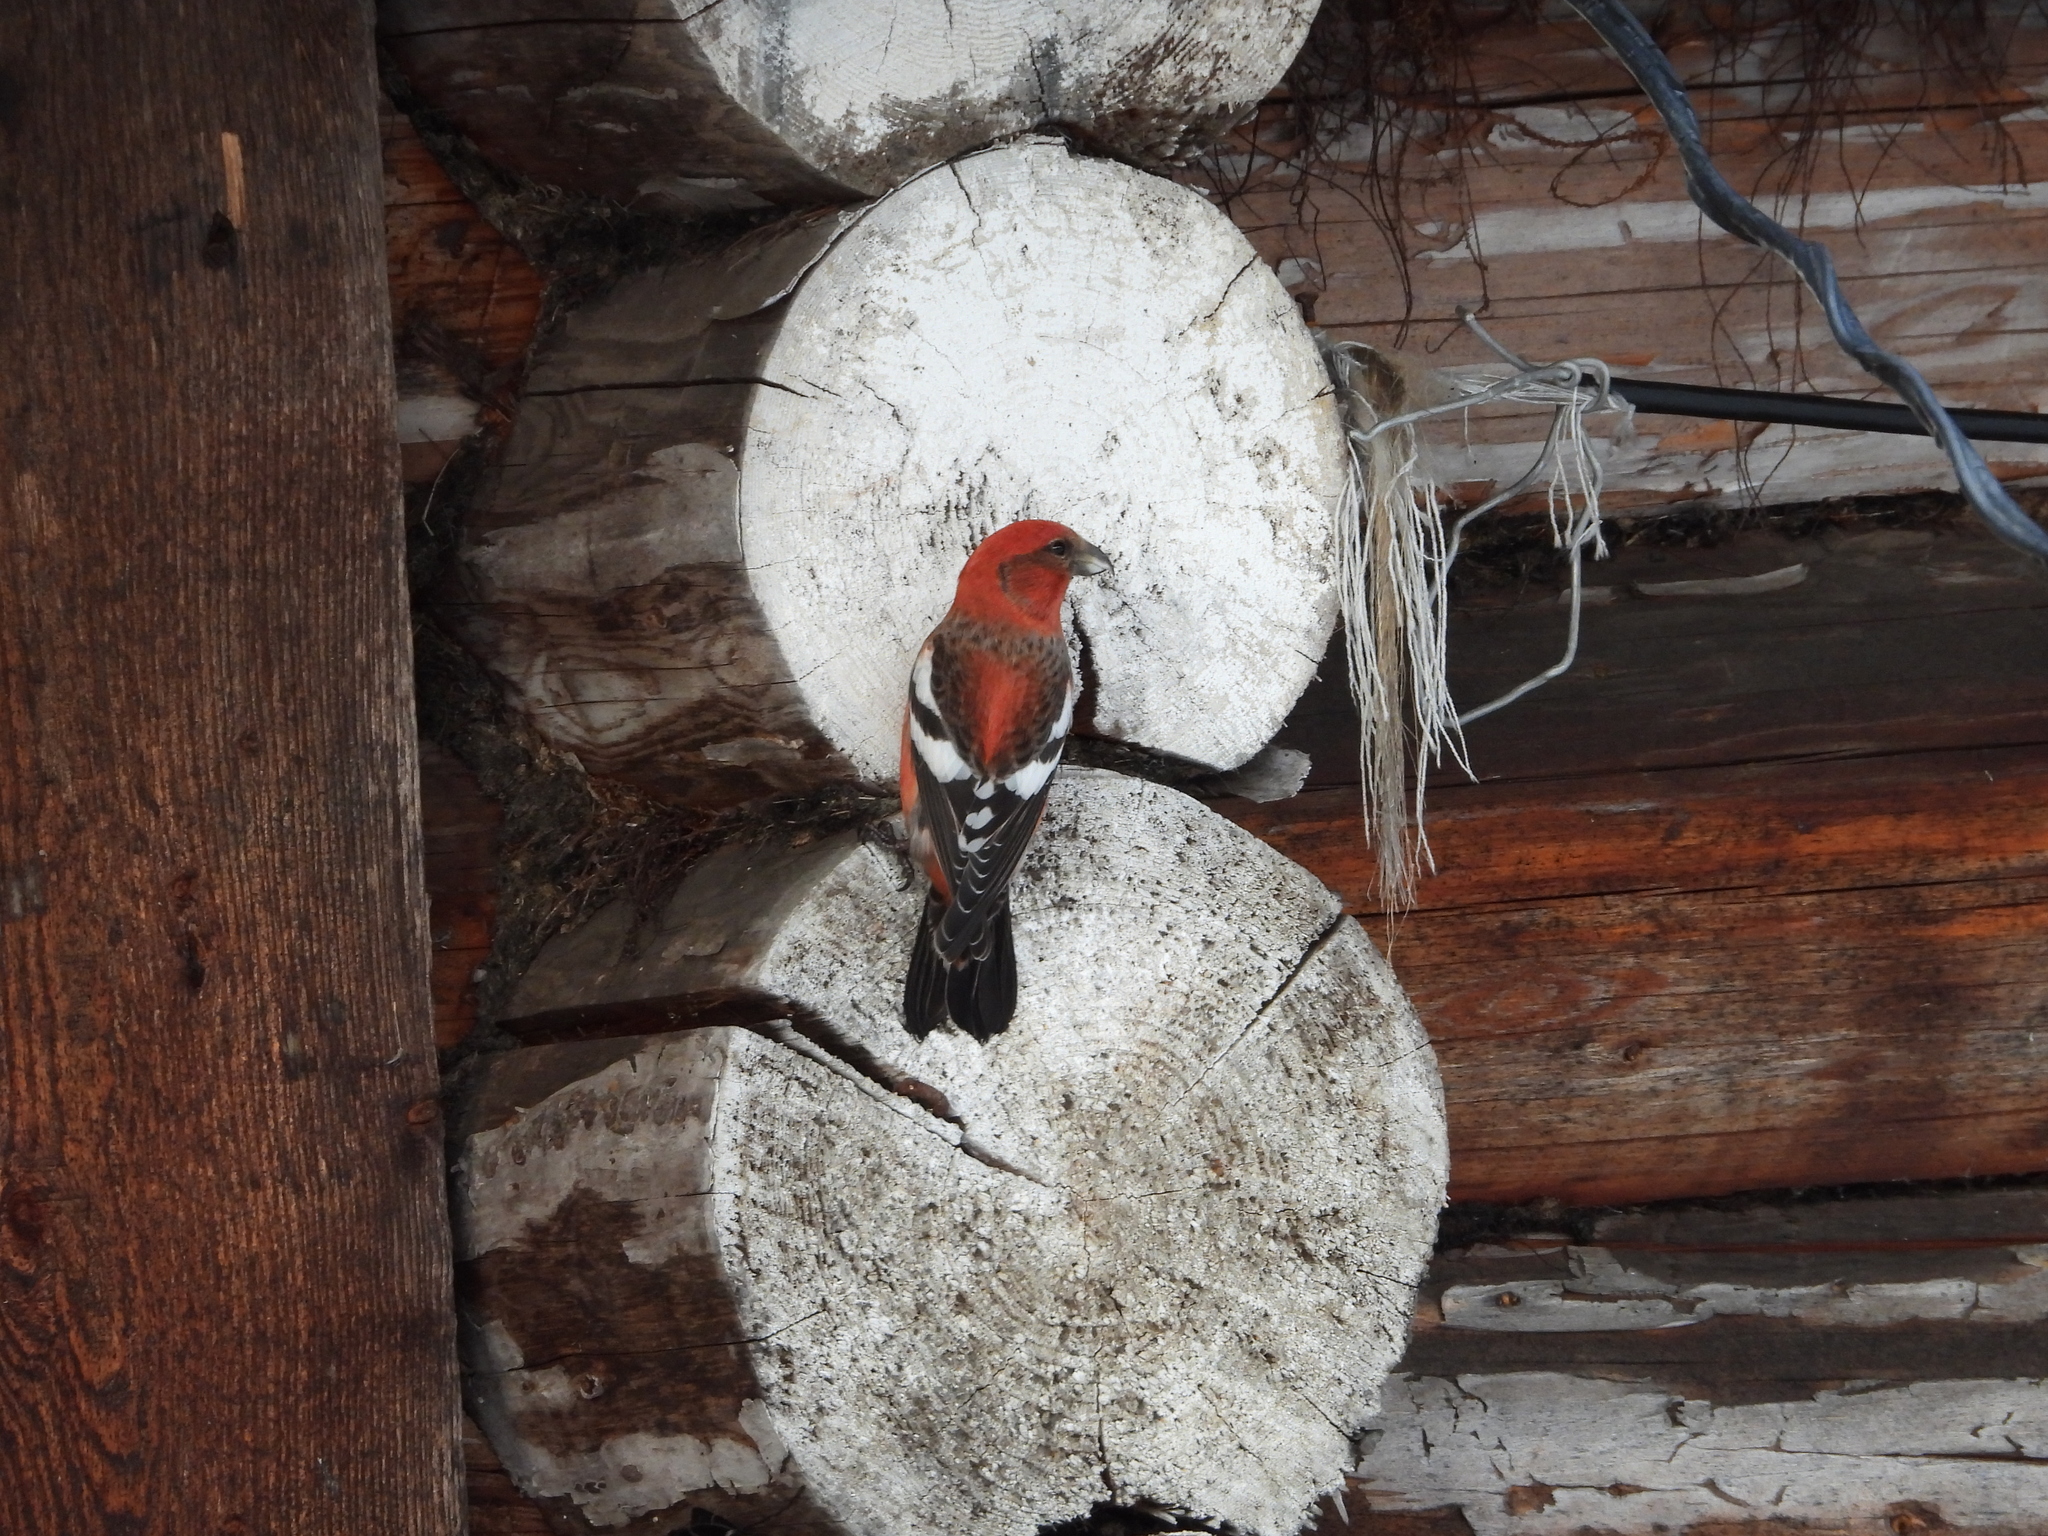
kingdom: Animalia
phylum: Chordata
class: Aves
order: Passeriformes
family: Fringillidae
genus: Loxia
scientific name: Loxia leucoptera
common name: Two-barred crossbill
